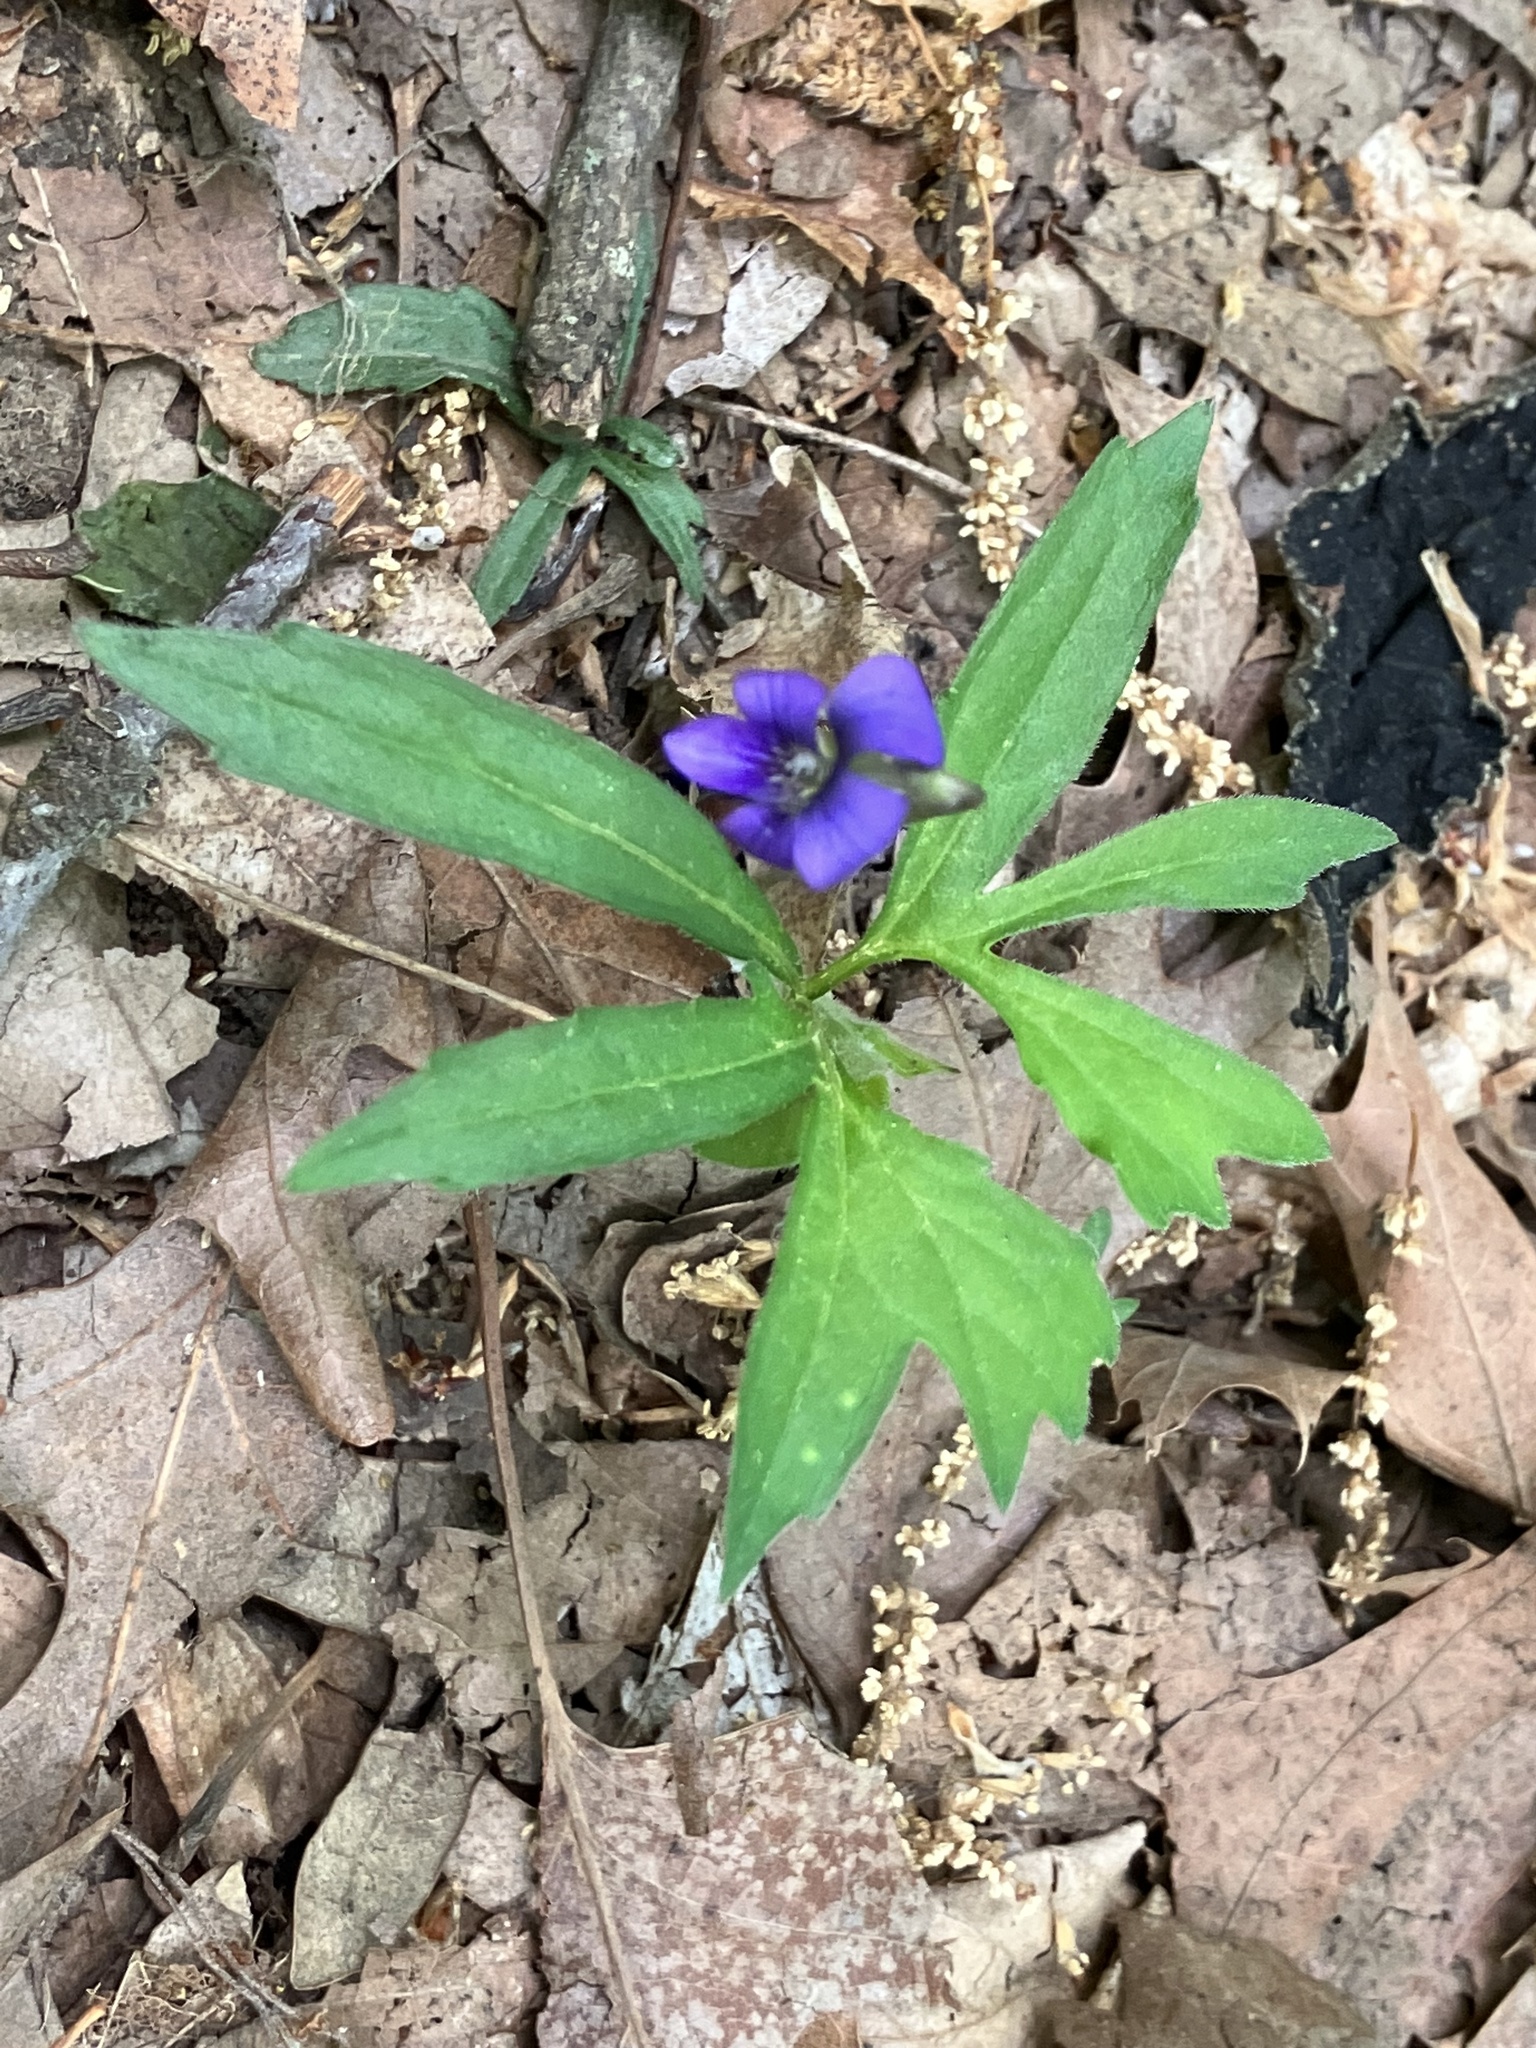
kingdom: Plantae
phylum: Tracheophyta
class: Magnoliopsida
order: Malpighiales
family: Violaceae
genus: Viola
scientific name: Viola palmata
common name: Early blue violet
